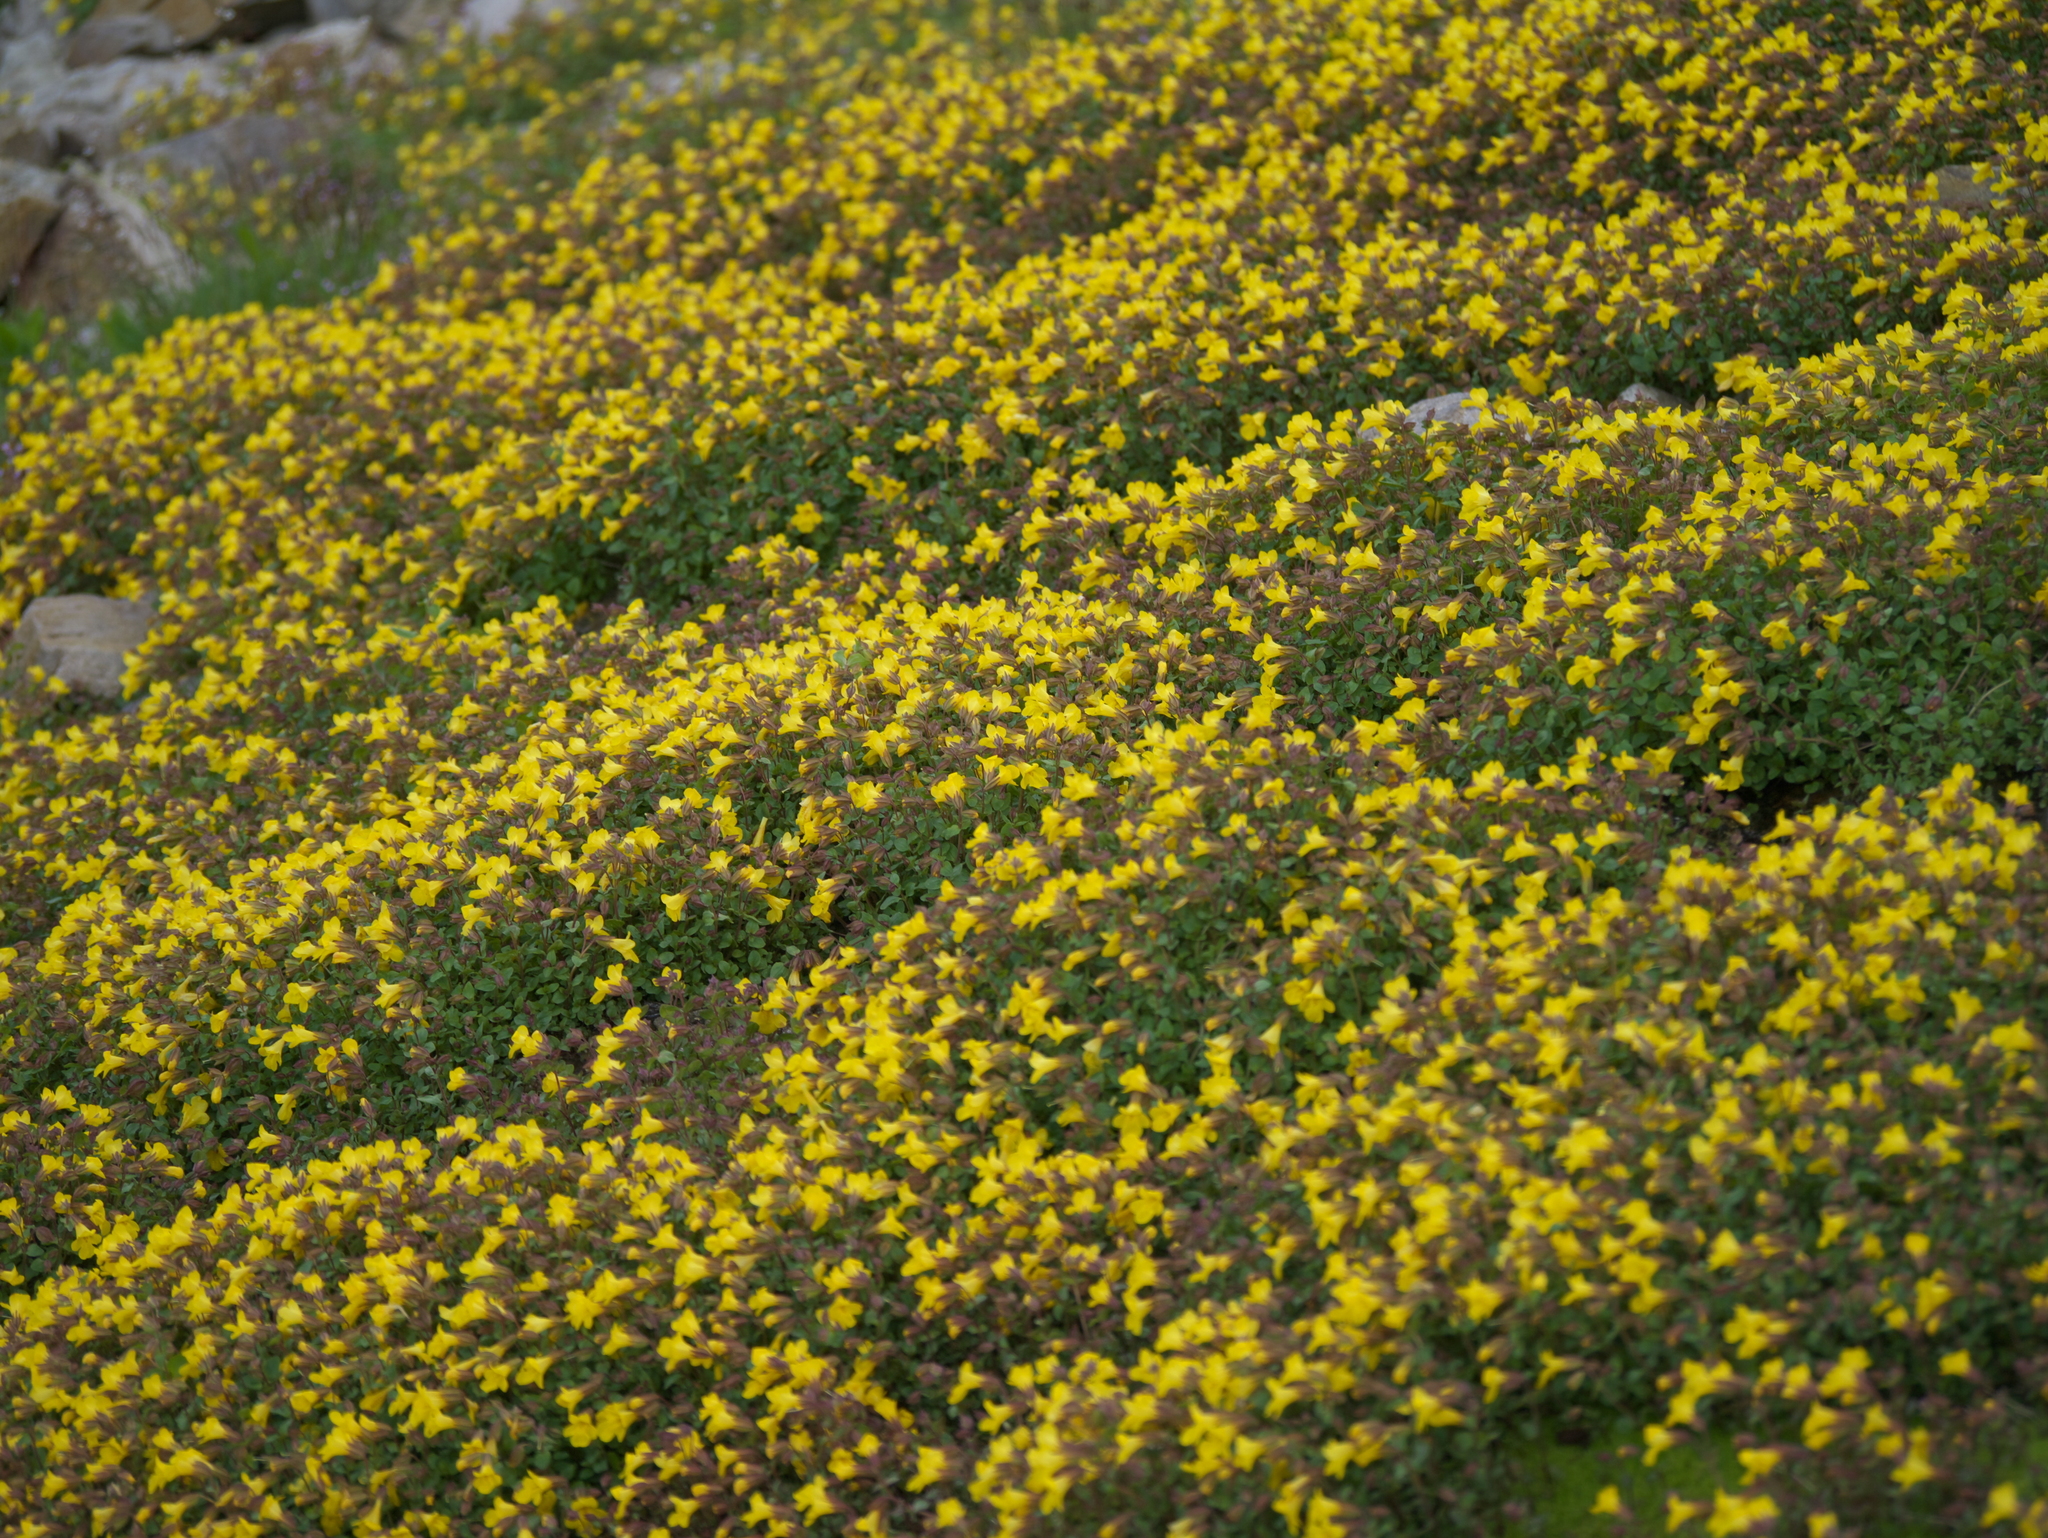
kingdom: Plantae
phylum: Tracheophyta
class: Magnoliopsida
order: Lamiales
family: Phrymaceae
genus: Erythranthe
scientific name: Erythranthe minor
